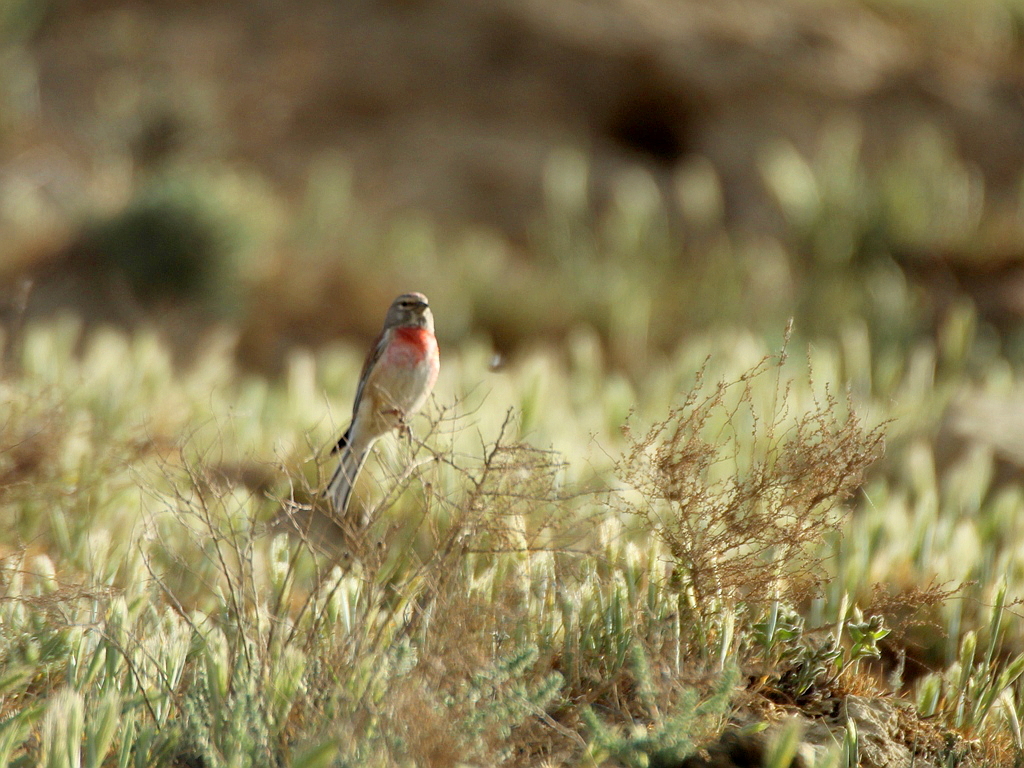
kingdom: Animalia
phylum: Chordata
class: Aves
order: Passeriformes
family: Fringillidae
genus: Linaria
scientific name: Linaria cannabina
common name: Common linnet
